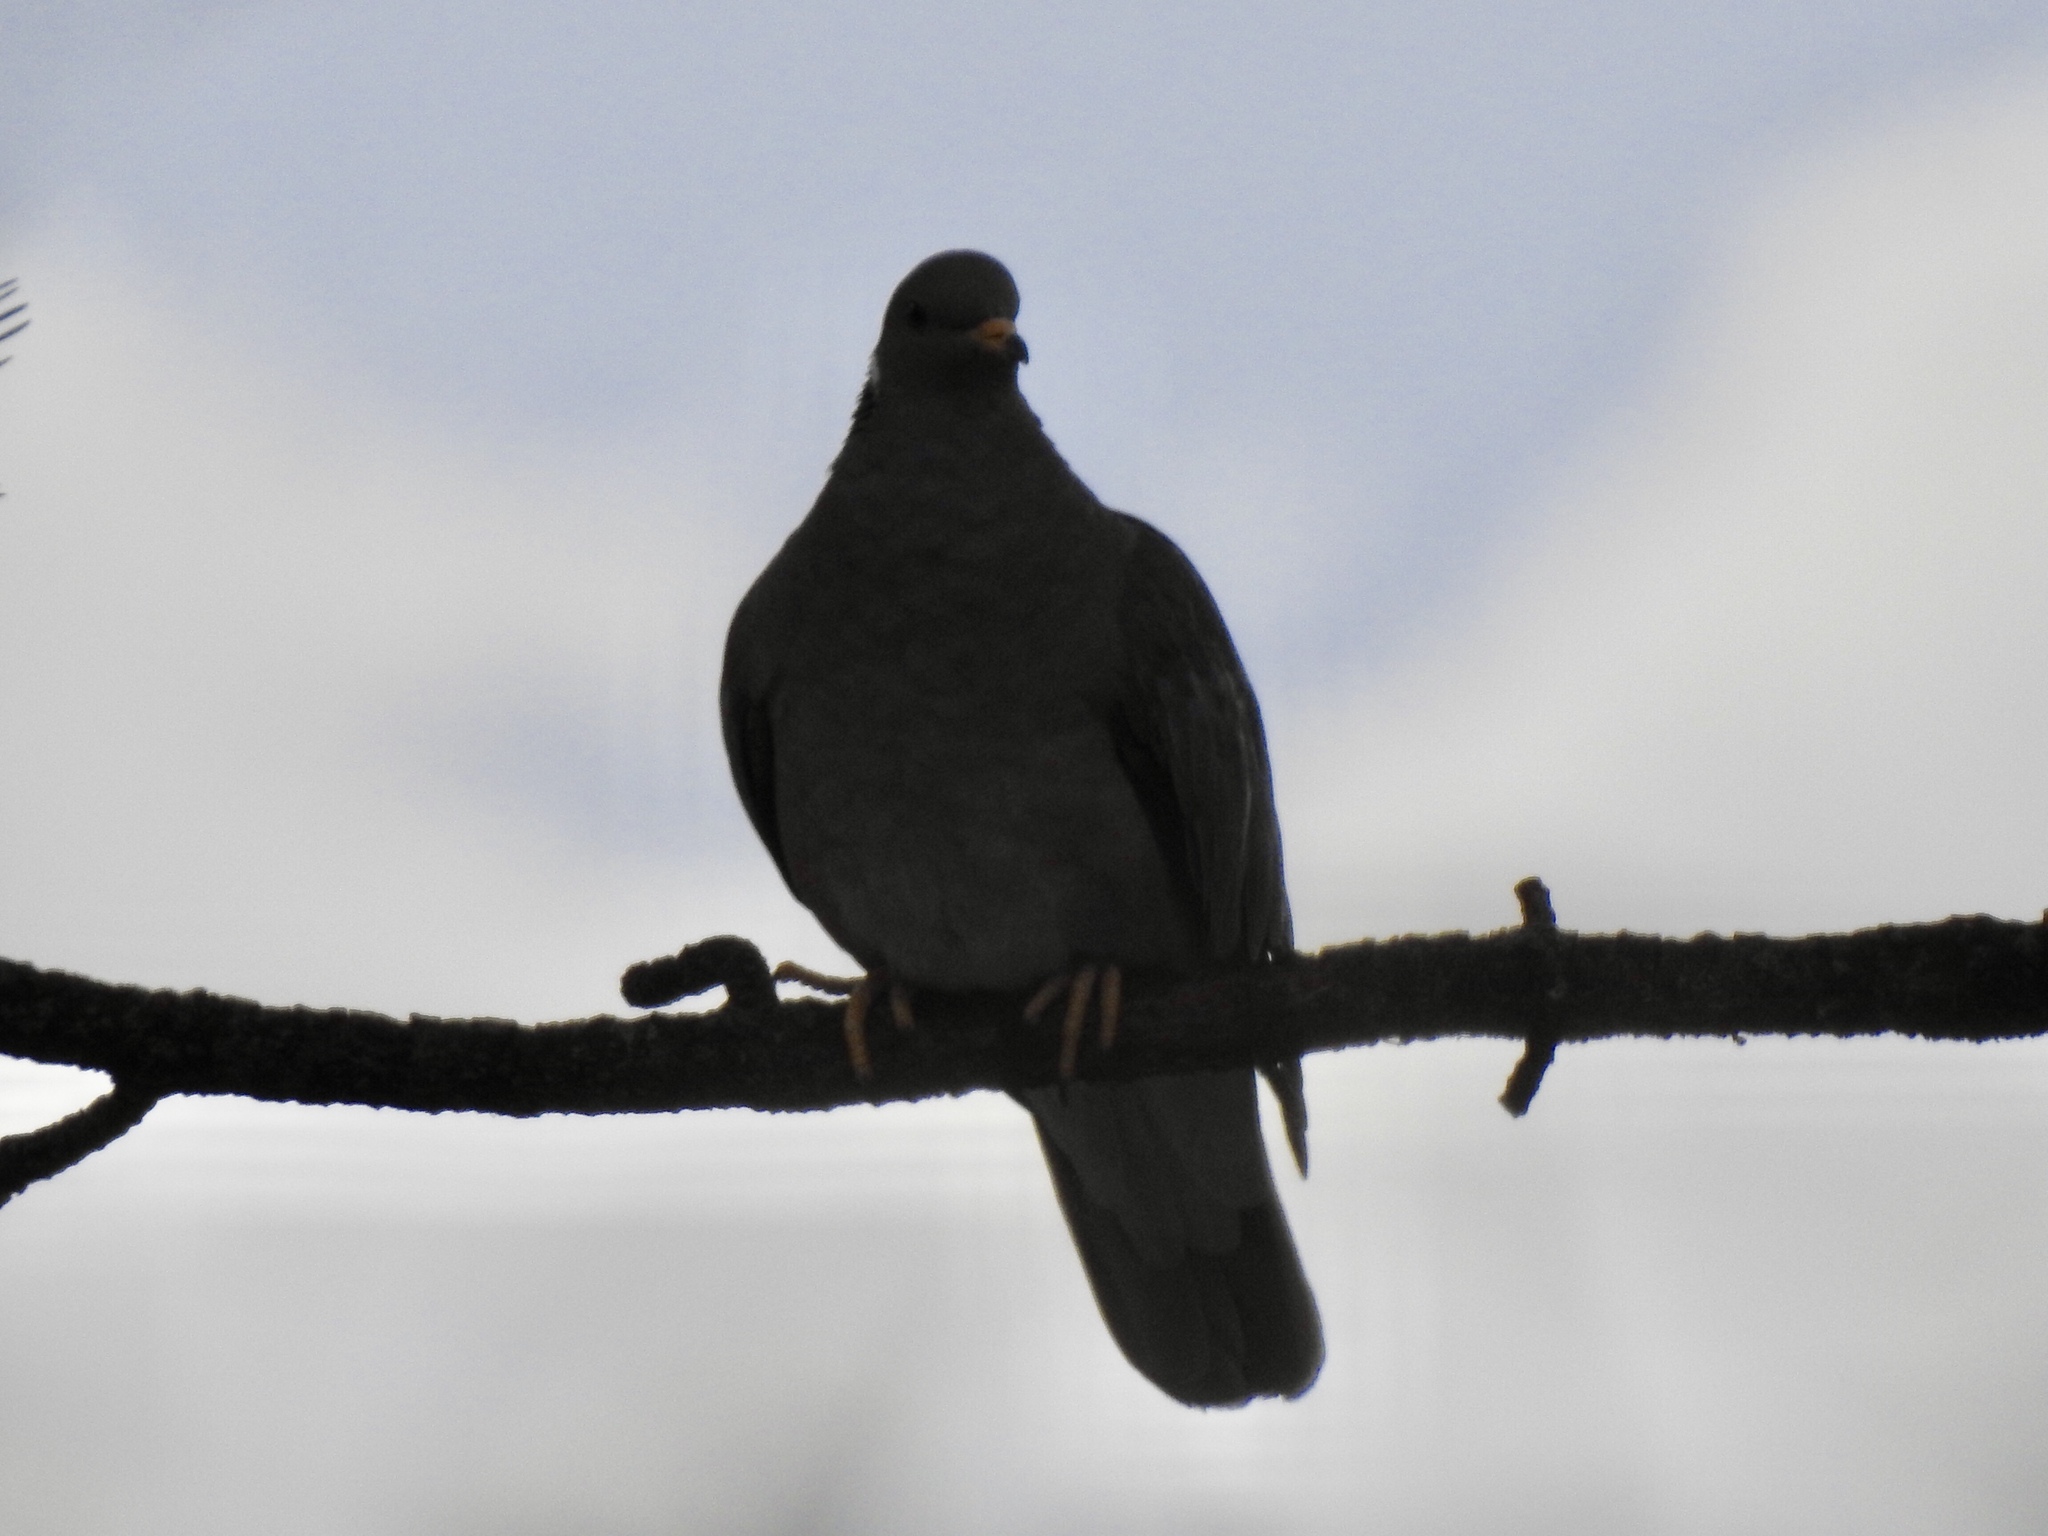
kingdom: Animalia
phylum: Chordata
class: Aves
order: Columbiformes
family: Columbidae
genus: Patagioenas
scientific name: Patagioenas fasciata
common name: Band-tailed pigeon
